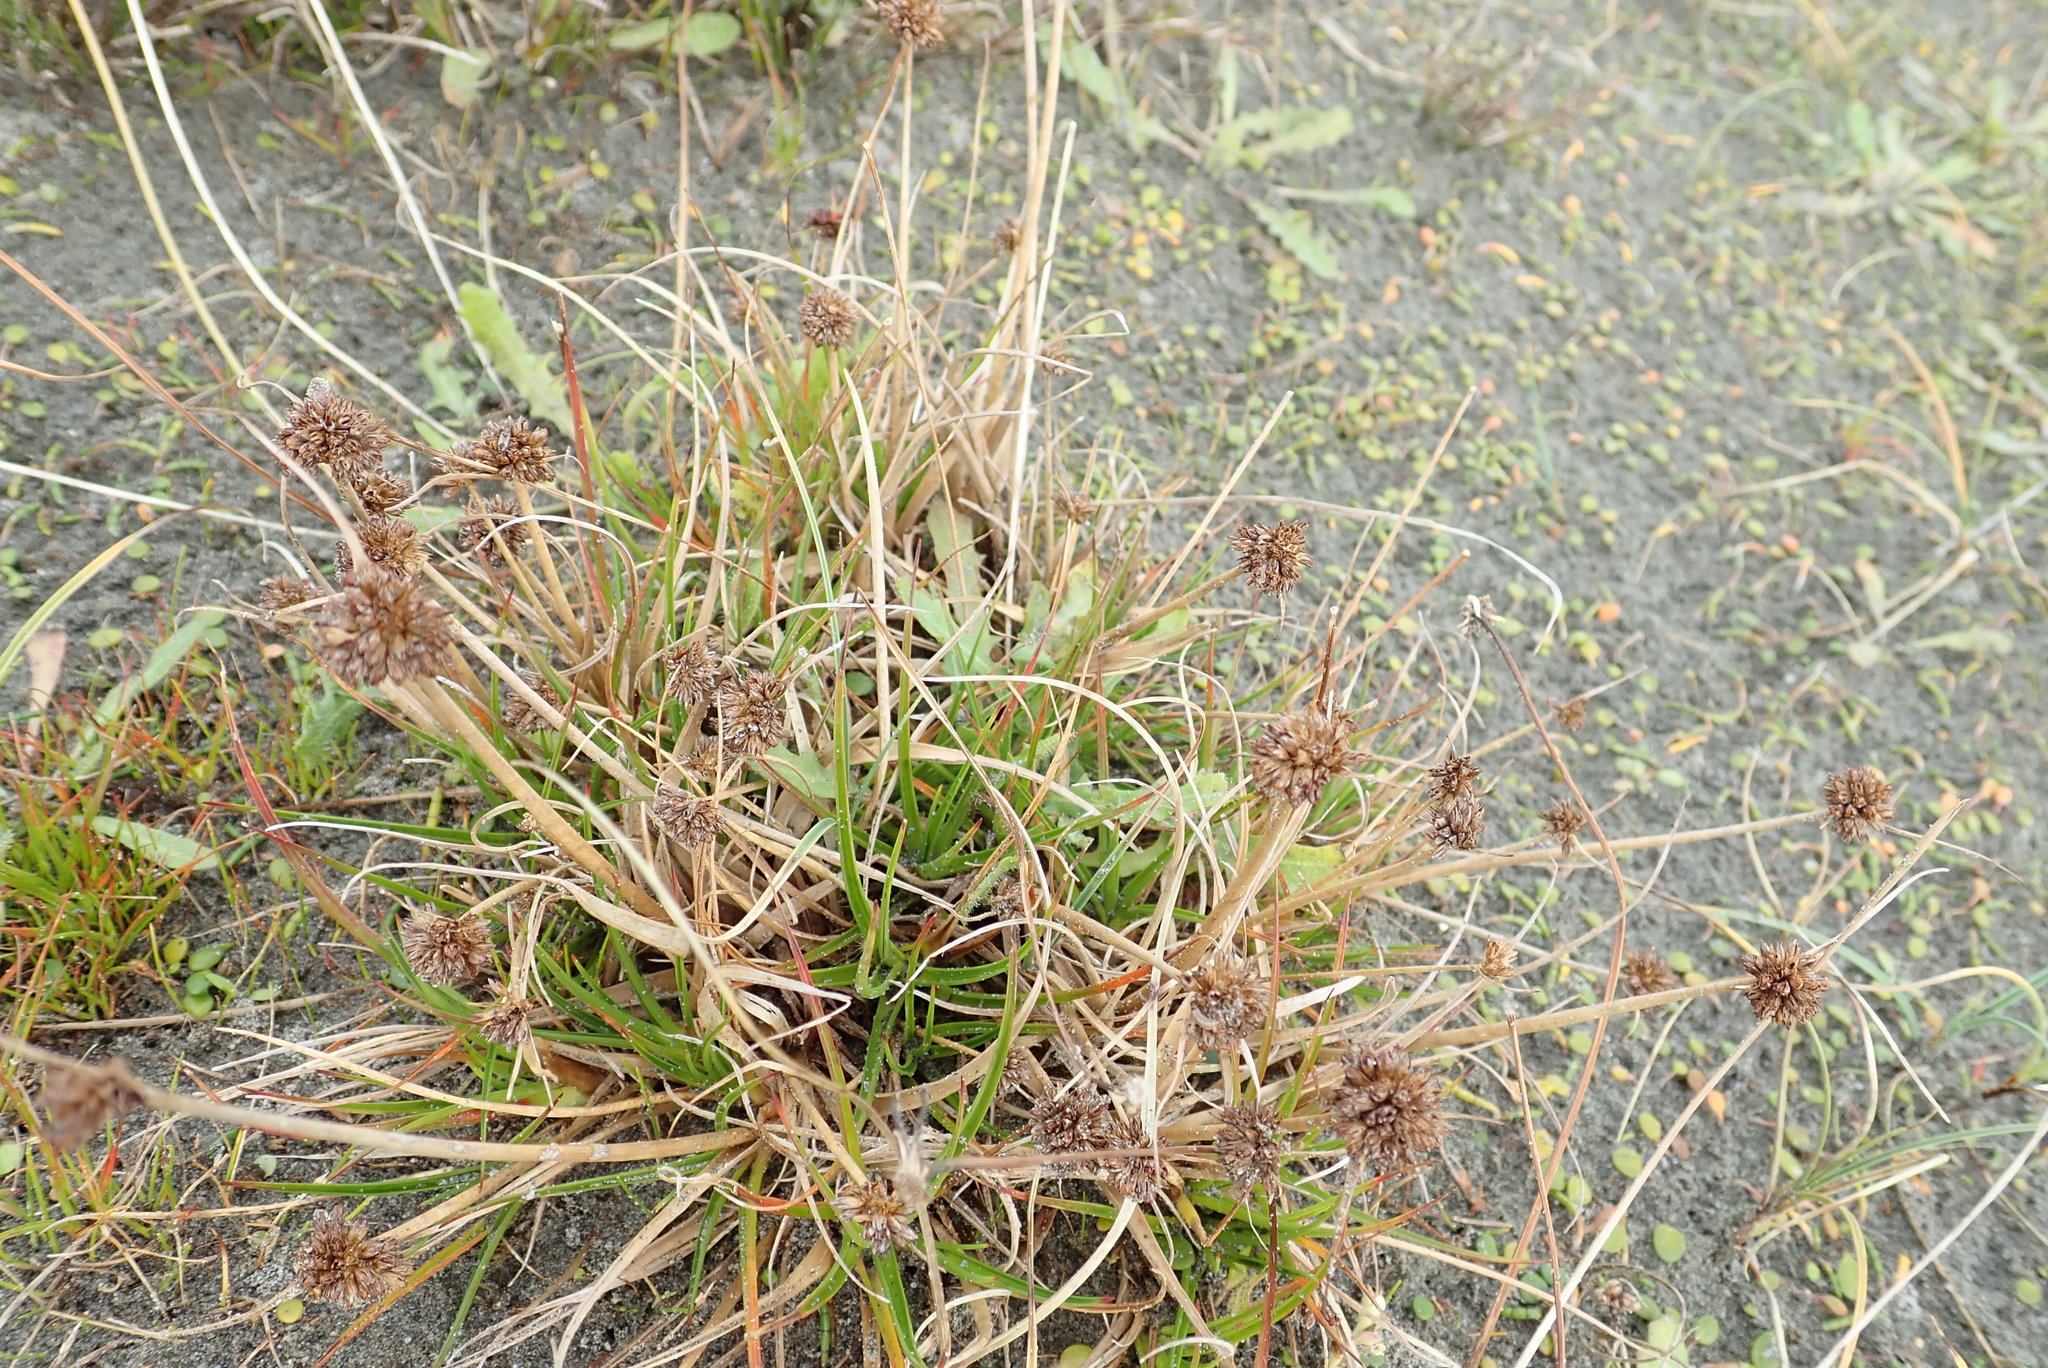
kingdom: Plantae
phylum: Tracheophyta
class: Liliopsida
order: Poales
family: Juncaceae
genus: Juncus
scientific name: Juncus caespiticius
